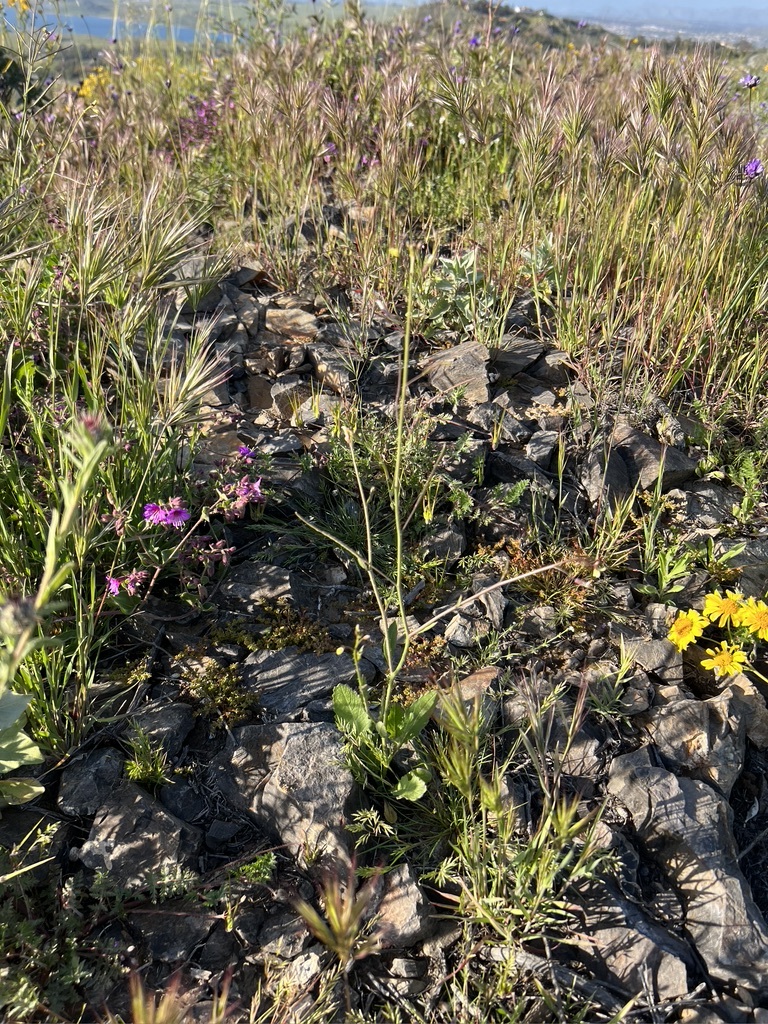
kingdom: Plantae
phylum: Tracheophyta
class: Magnoliopsida
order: Brassicales
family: Brassicaceae
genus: Brassica
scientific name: Brassica tournefortii
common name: Pale cabbage
